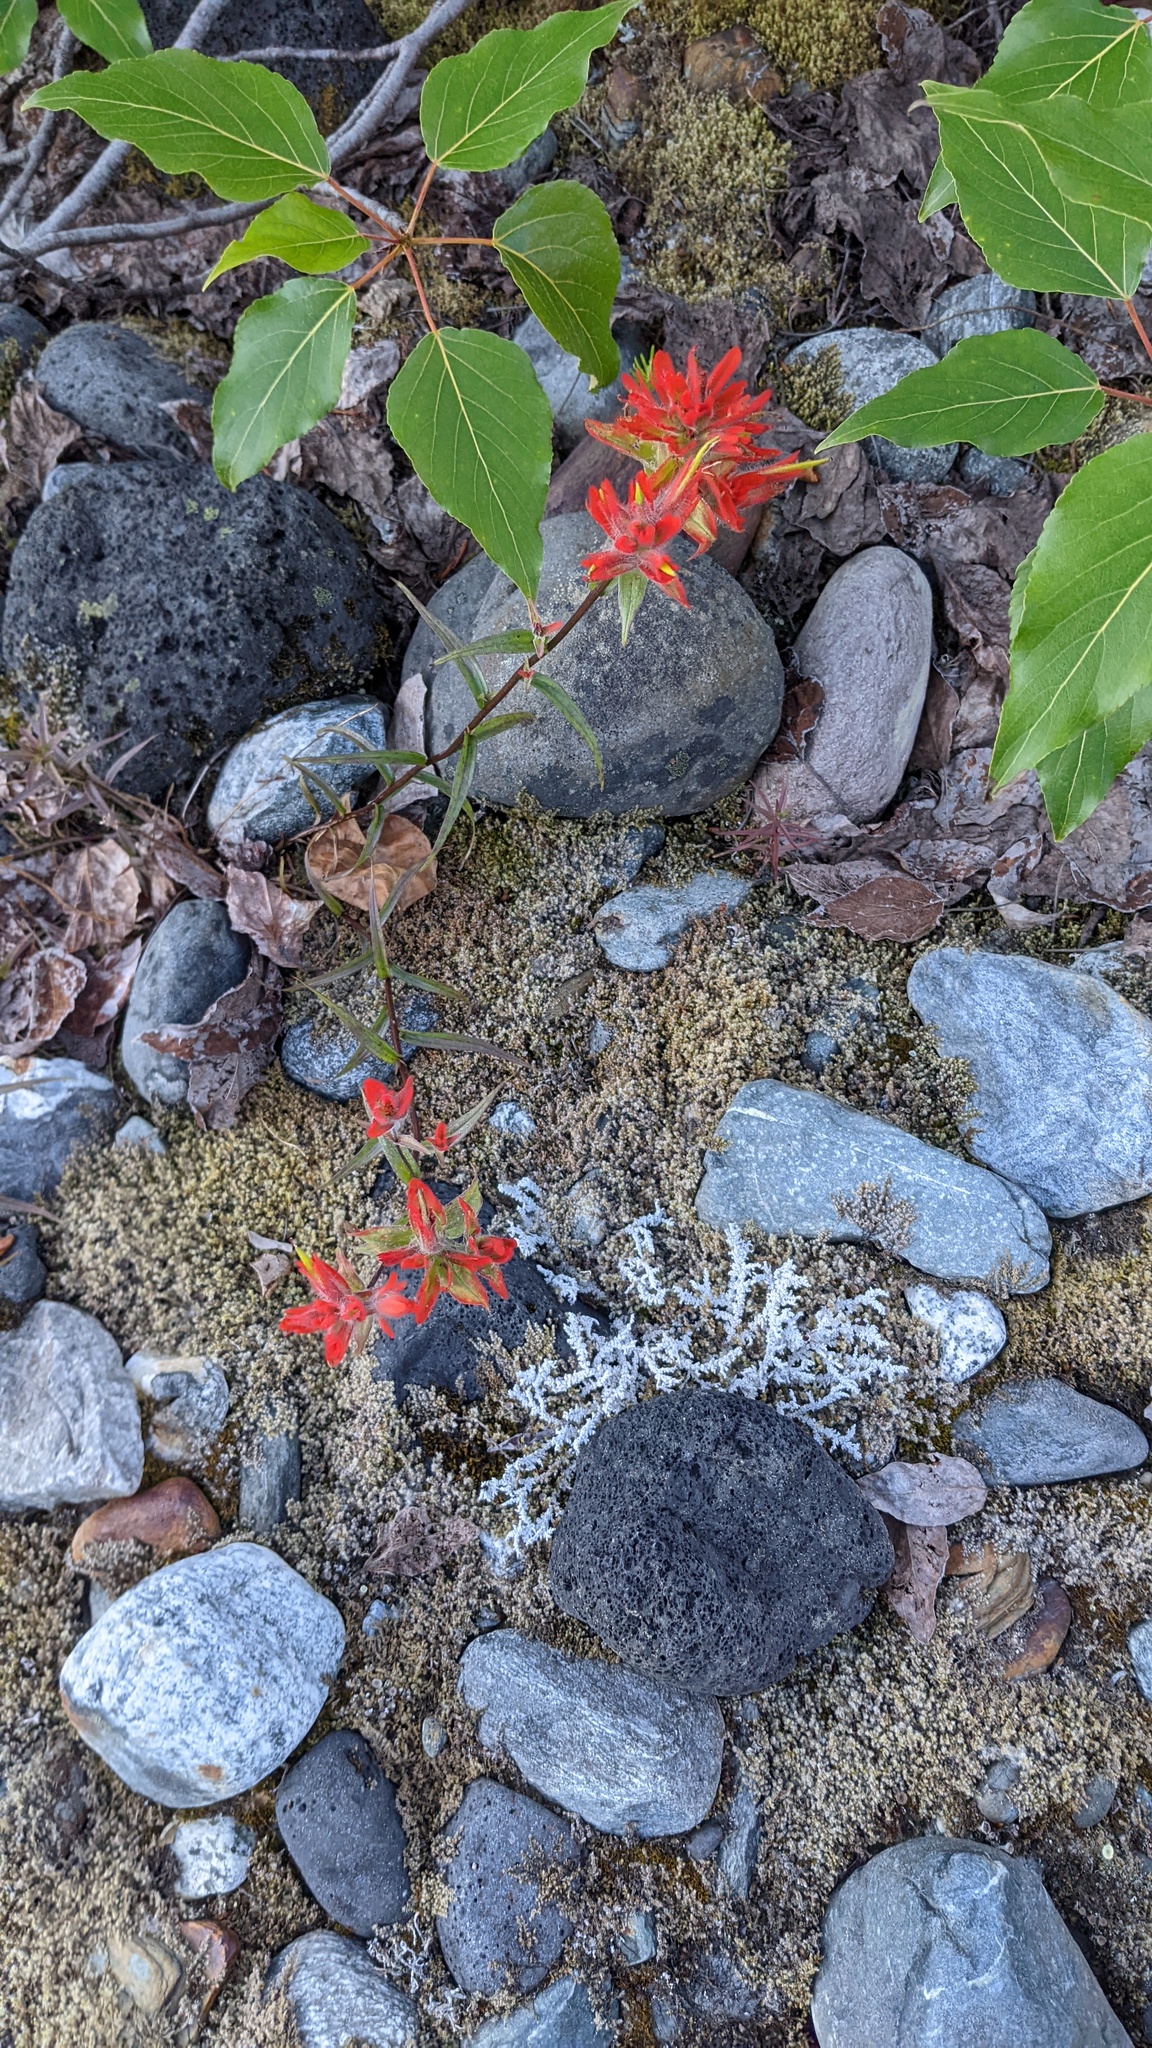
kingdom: Plantae
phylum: Tracheophyta
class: Magnoliopsida
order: Lamiales
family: Orobanchaceae
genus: Castilleja
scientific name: Castilleja miniata
